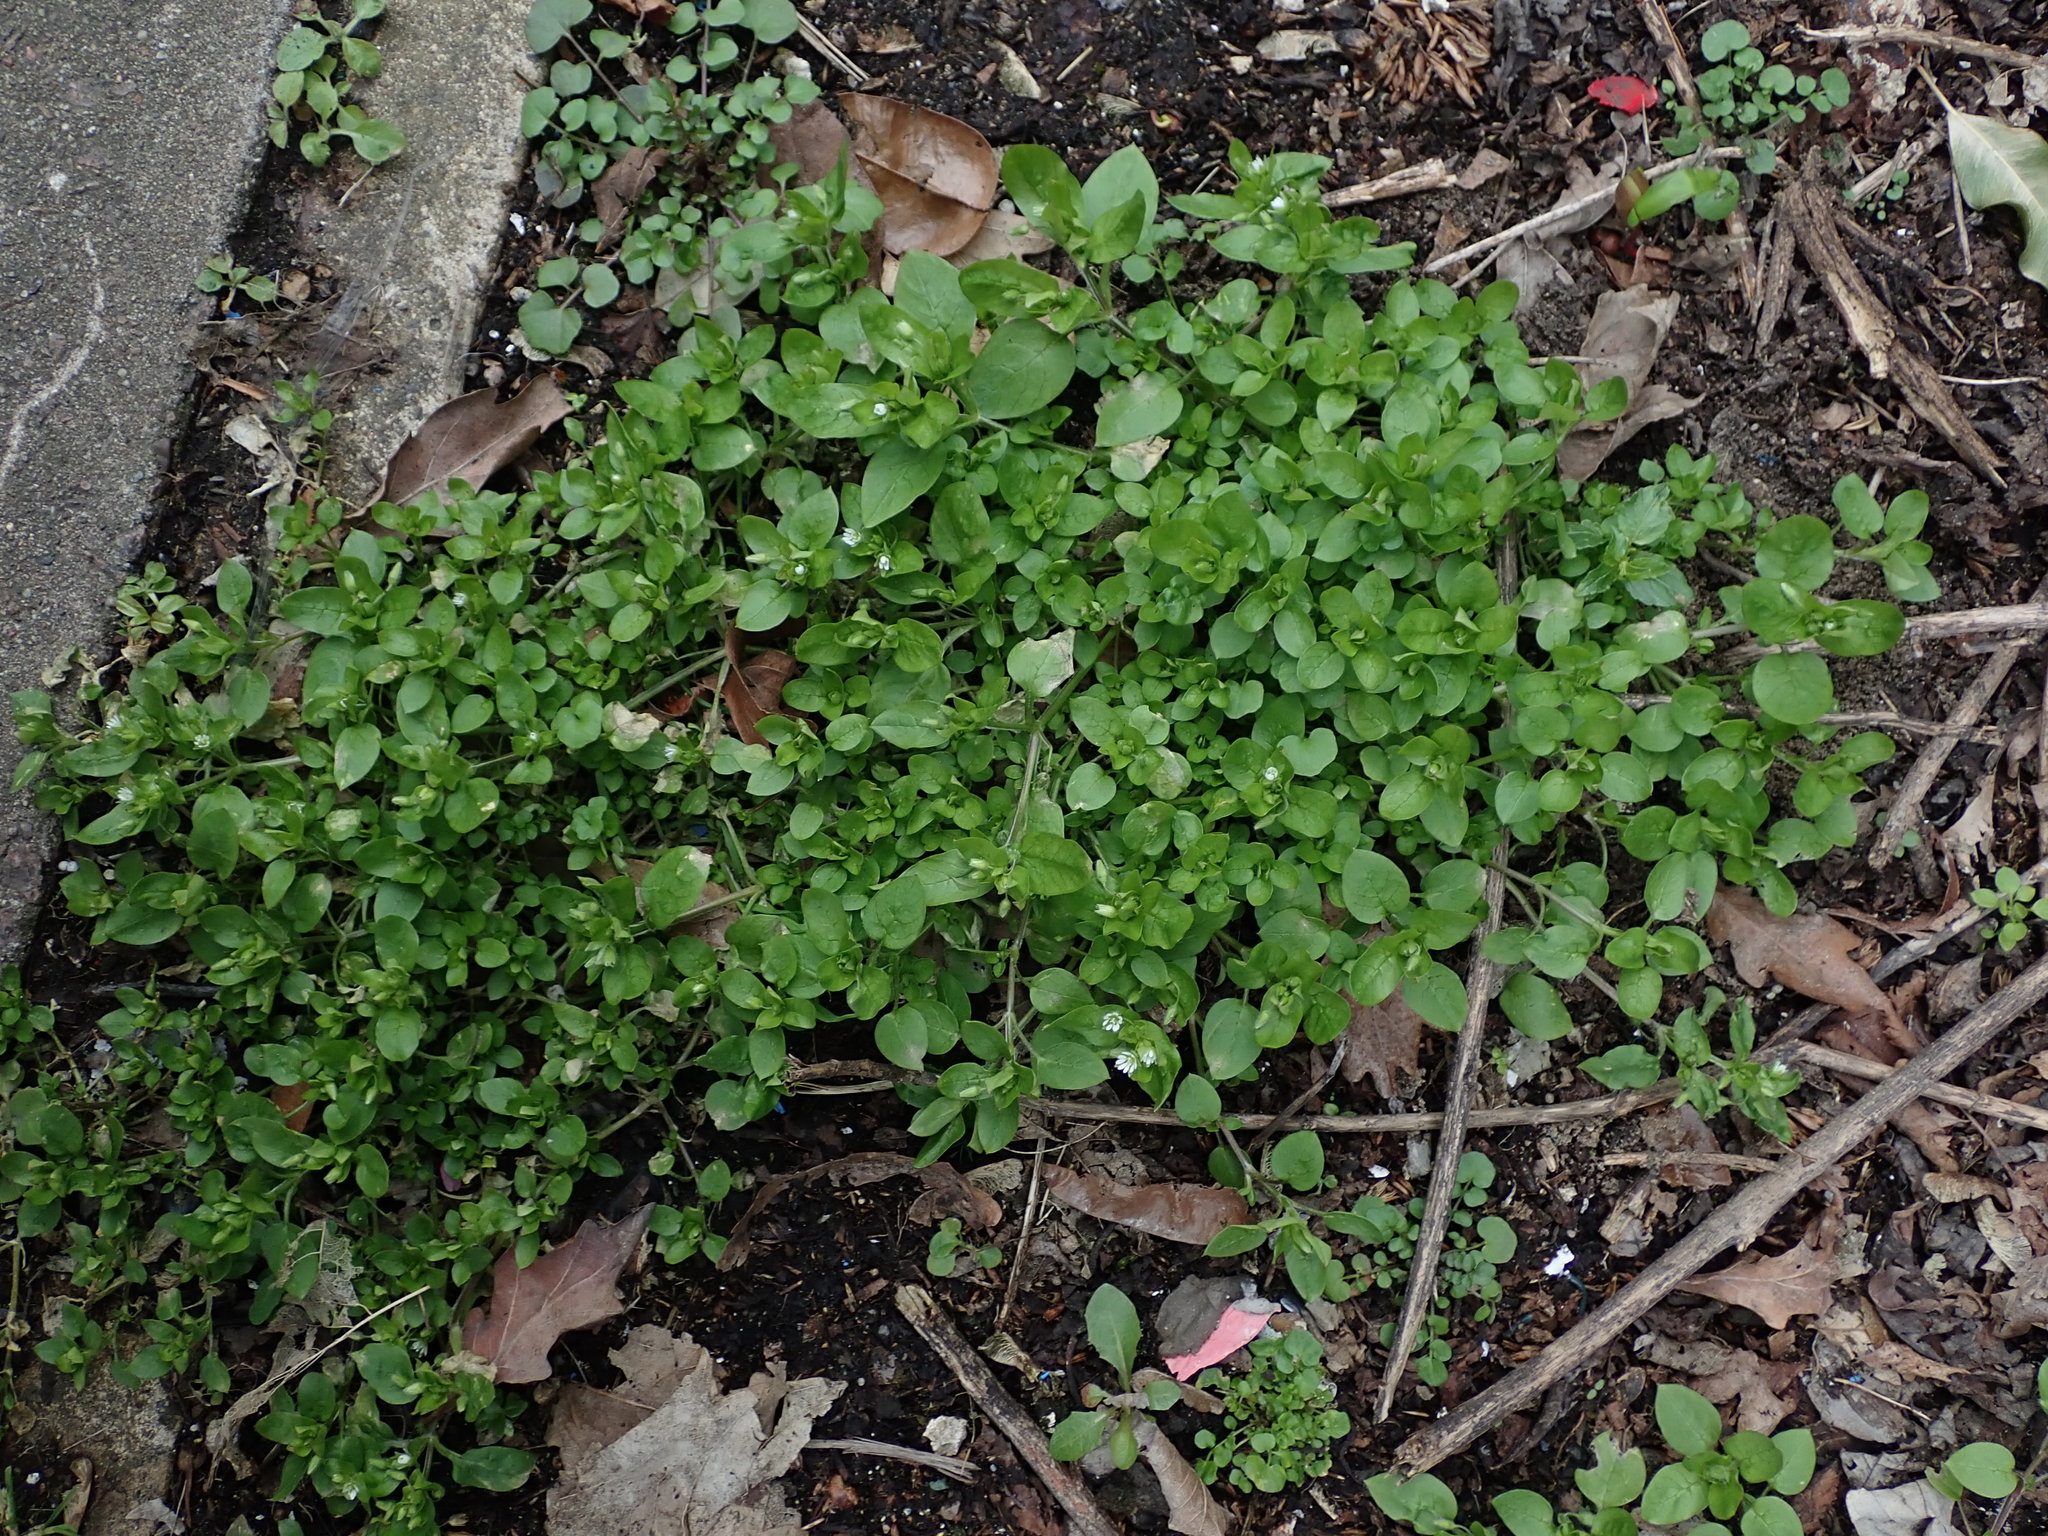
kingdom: Plantae
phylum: Tracheophyta
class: Magnoliopsida
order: Caryophyllales
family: Caryophyllaceae
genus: Stellaria
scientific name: Stellaria media
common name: Common chickweed
